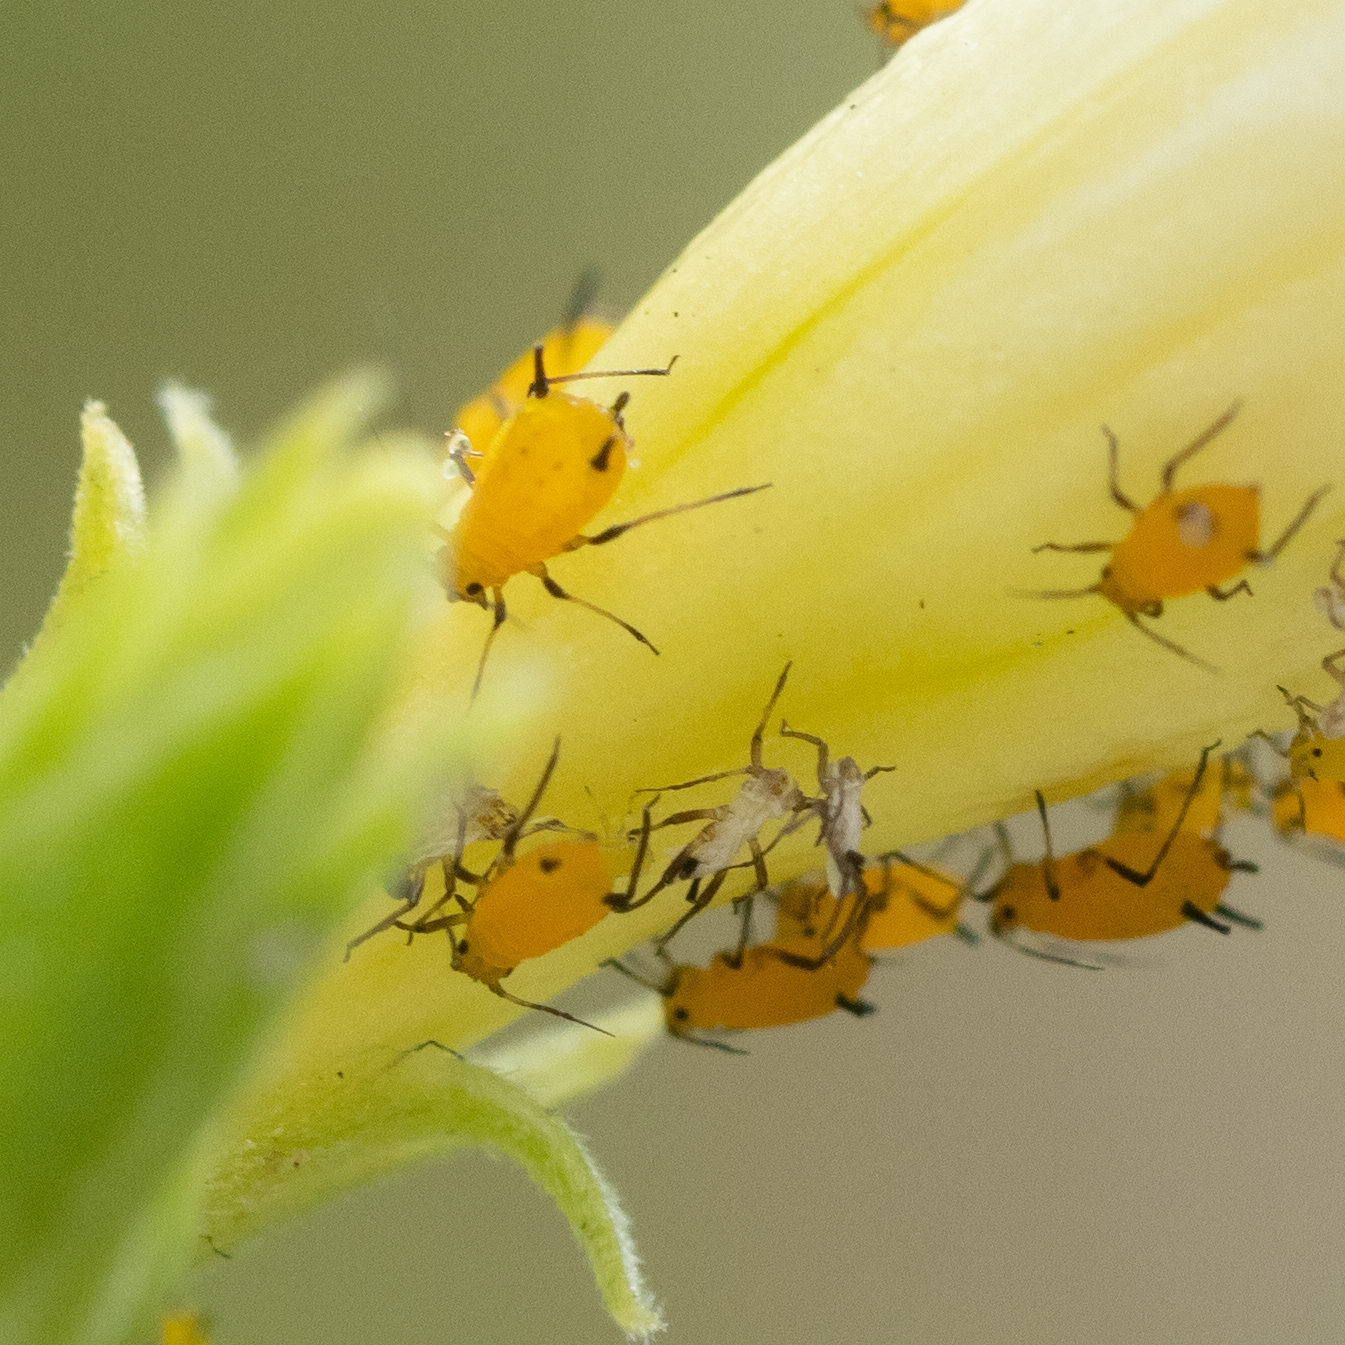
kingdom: Animalia
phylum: Arthropoda
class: Insecta
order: Hemiptera
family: Aphididae
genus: Aphis
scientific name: Aphis nerii
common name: Oleander aphid
